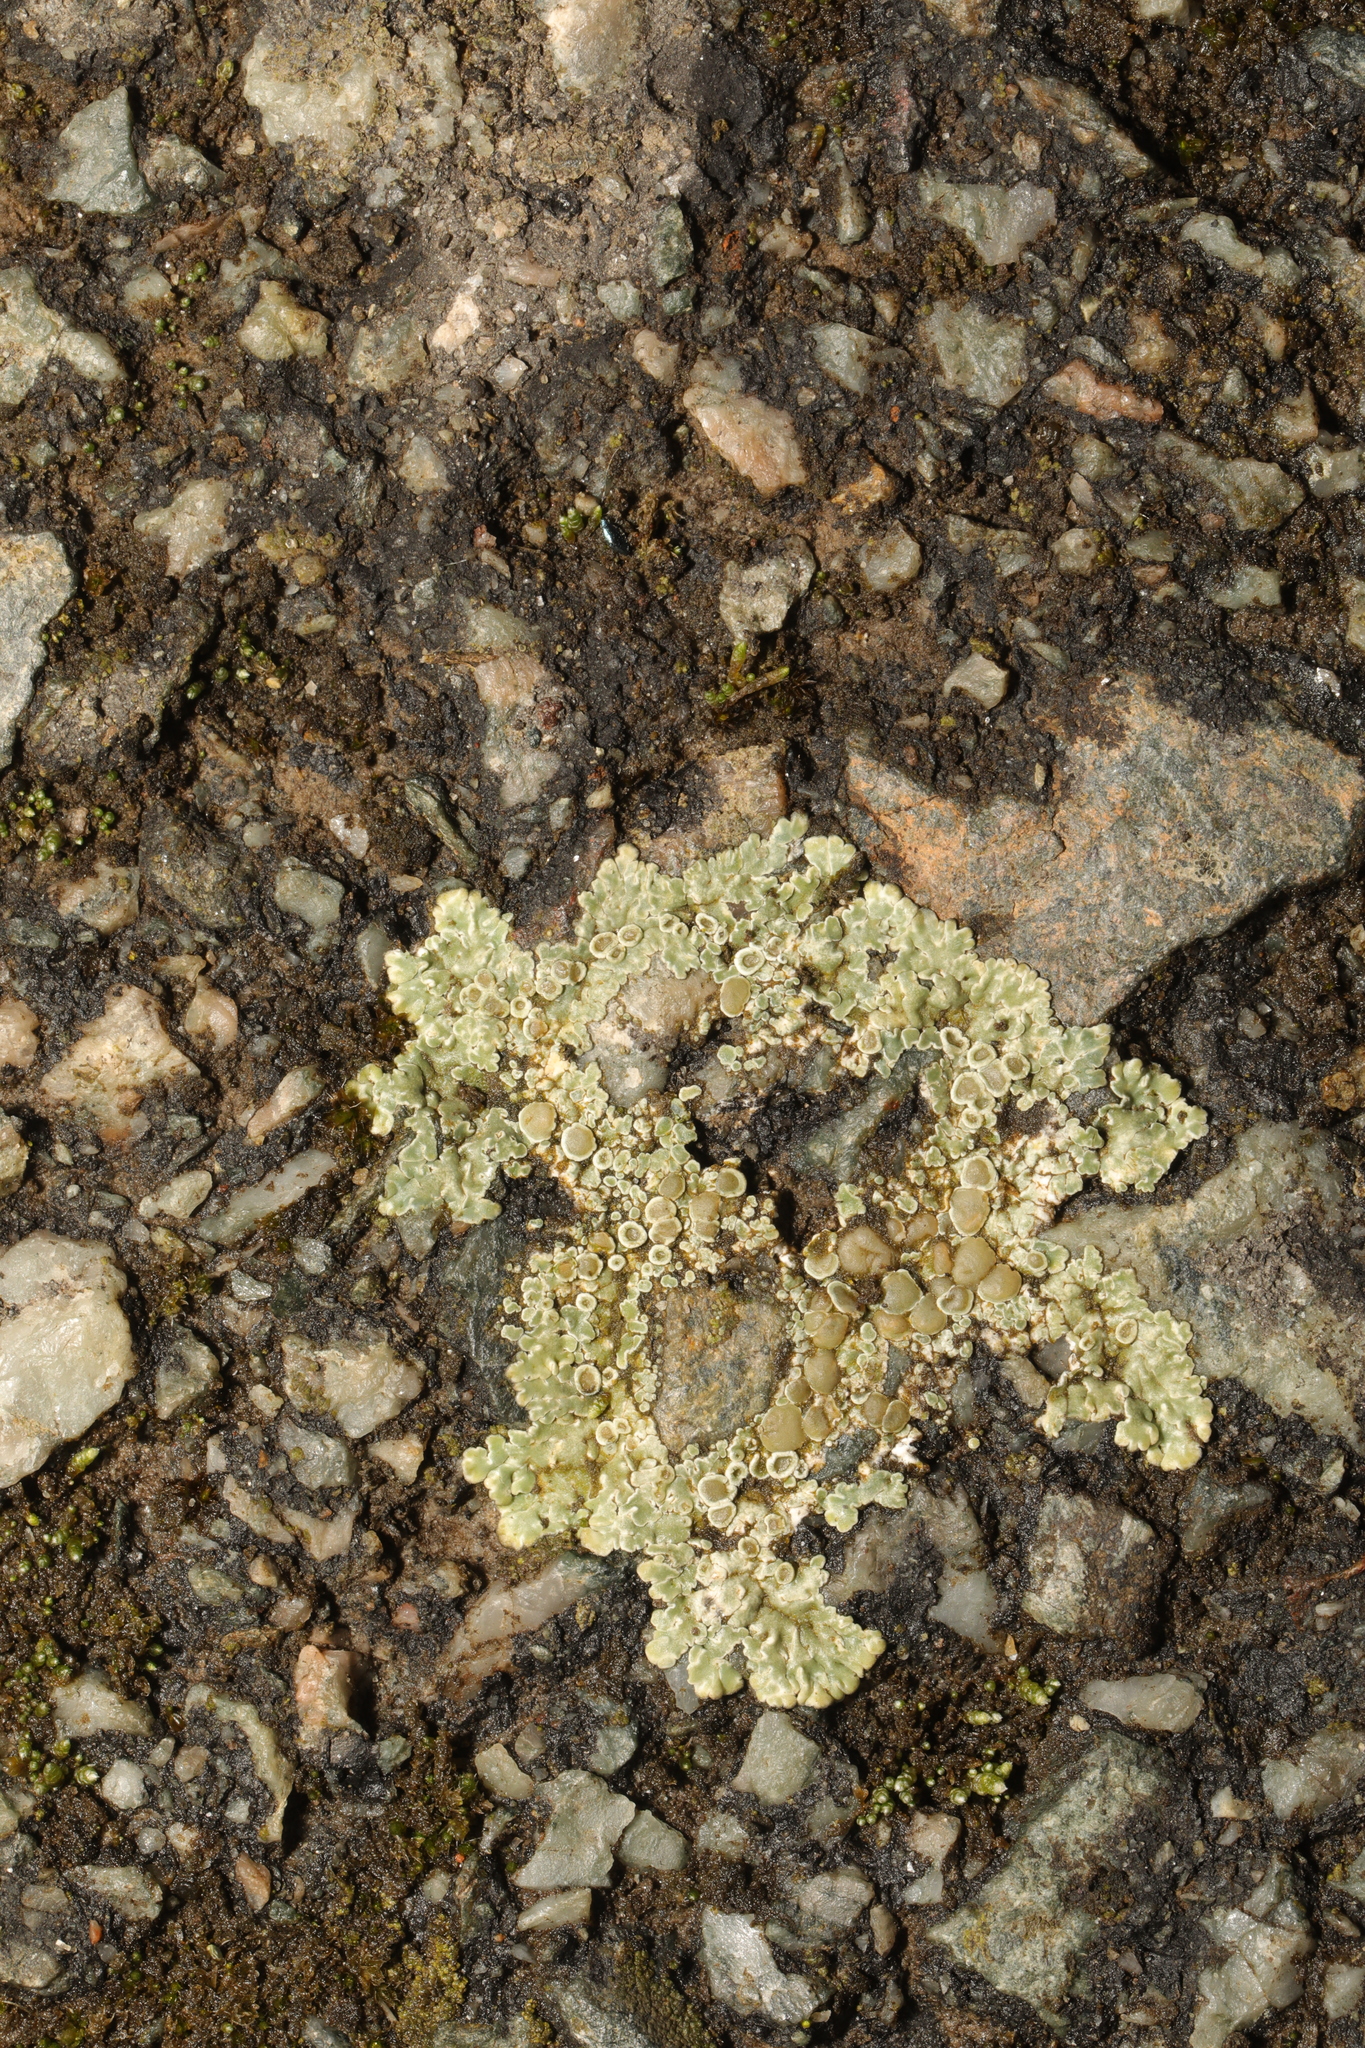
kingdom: Fungi
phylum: Ascomycota
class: Lecanoromycetes
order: Lecanorales
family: Lecanoraceae
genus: Protoparmeliopsis
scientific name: Protoparmeliopsis muralis
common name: Stonewall rim lichen
